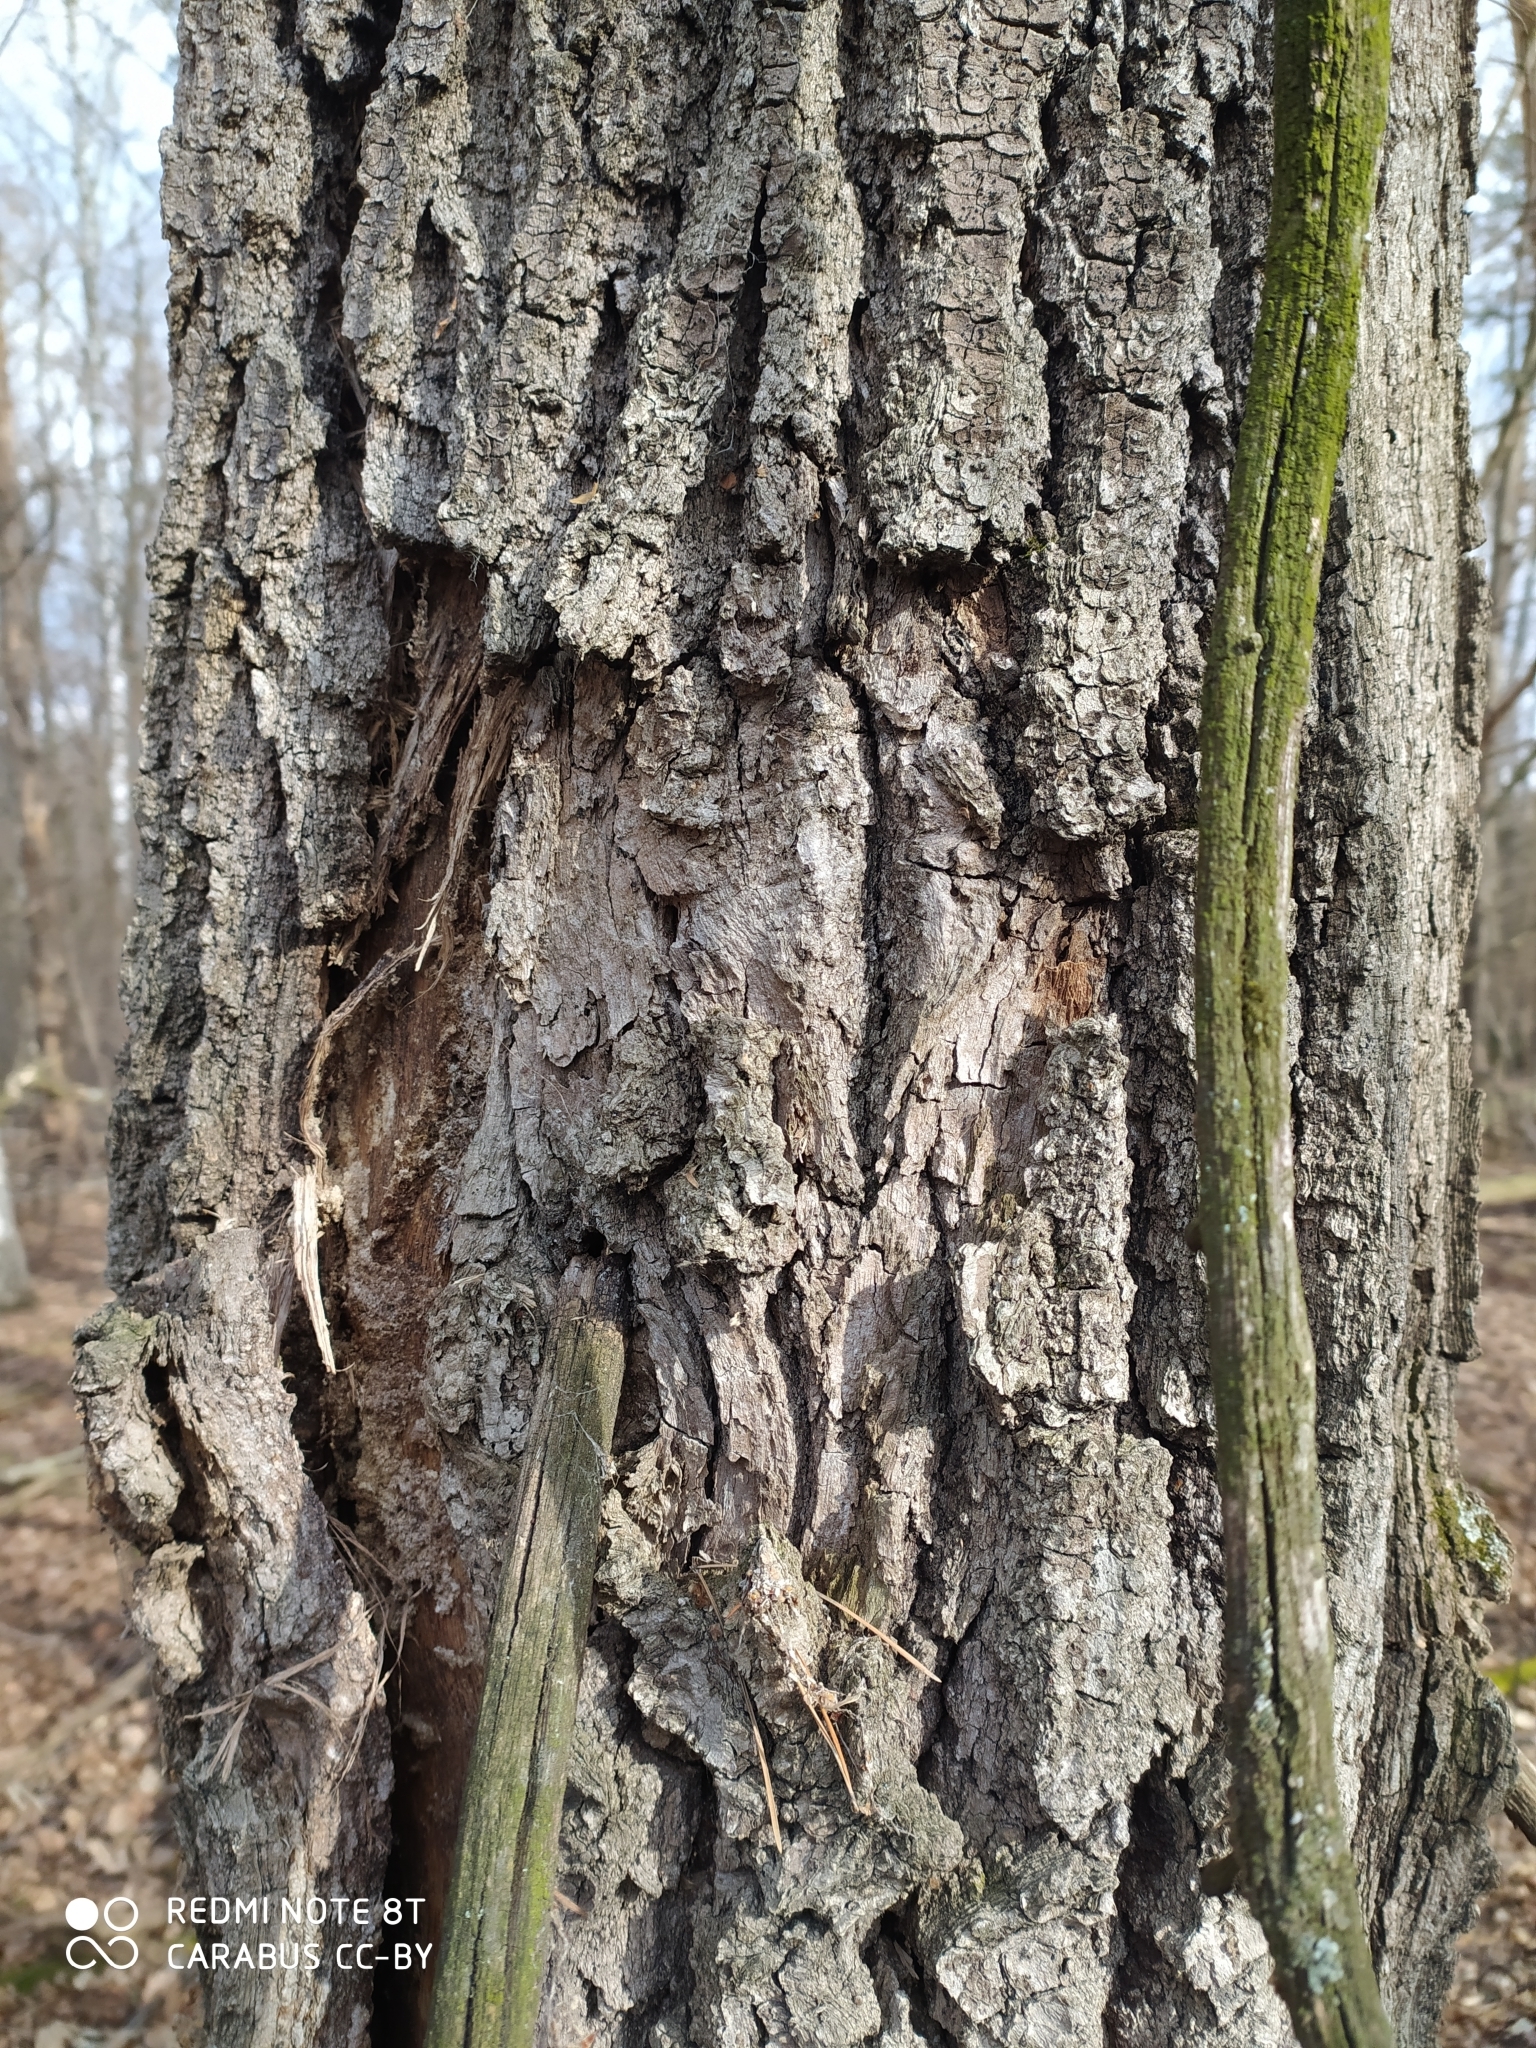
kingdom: Plantae
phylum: Tracheophyta
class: Magnoliopsida
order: Fagales
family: Fagaceae
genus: Quercus
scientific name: Quercus robur
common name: Pedunculate oak
